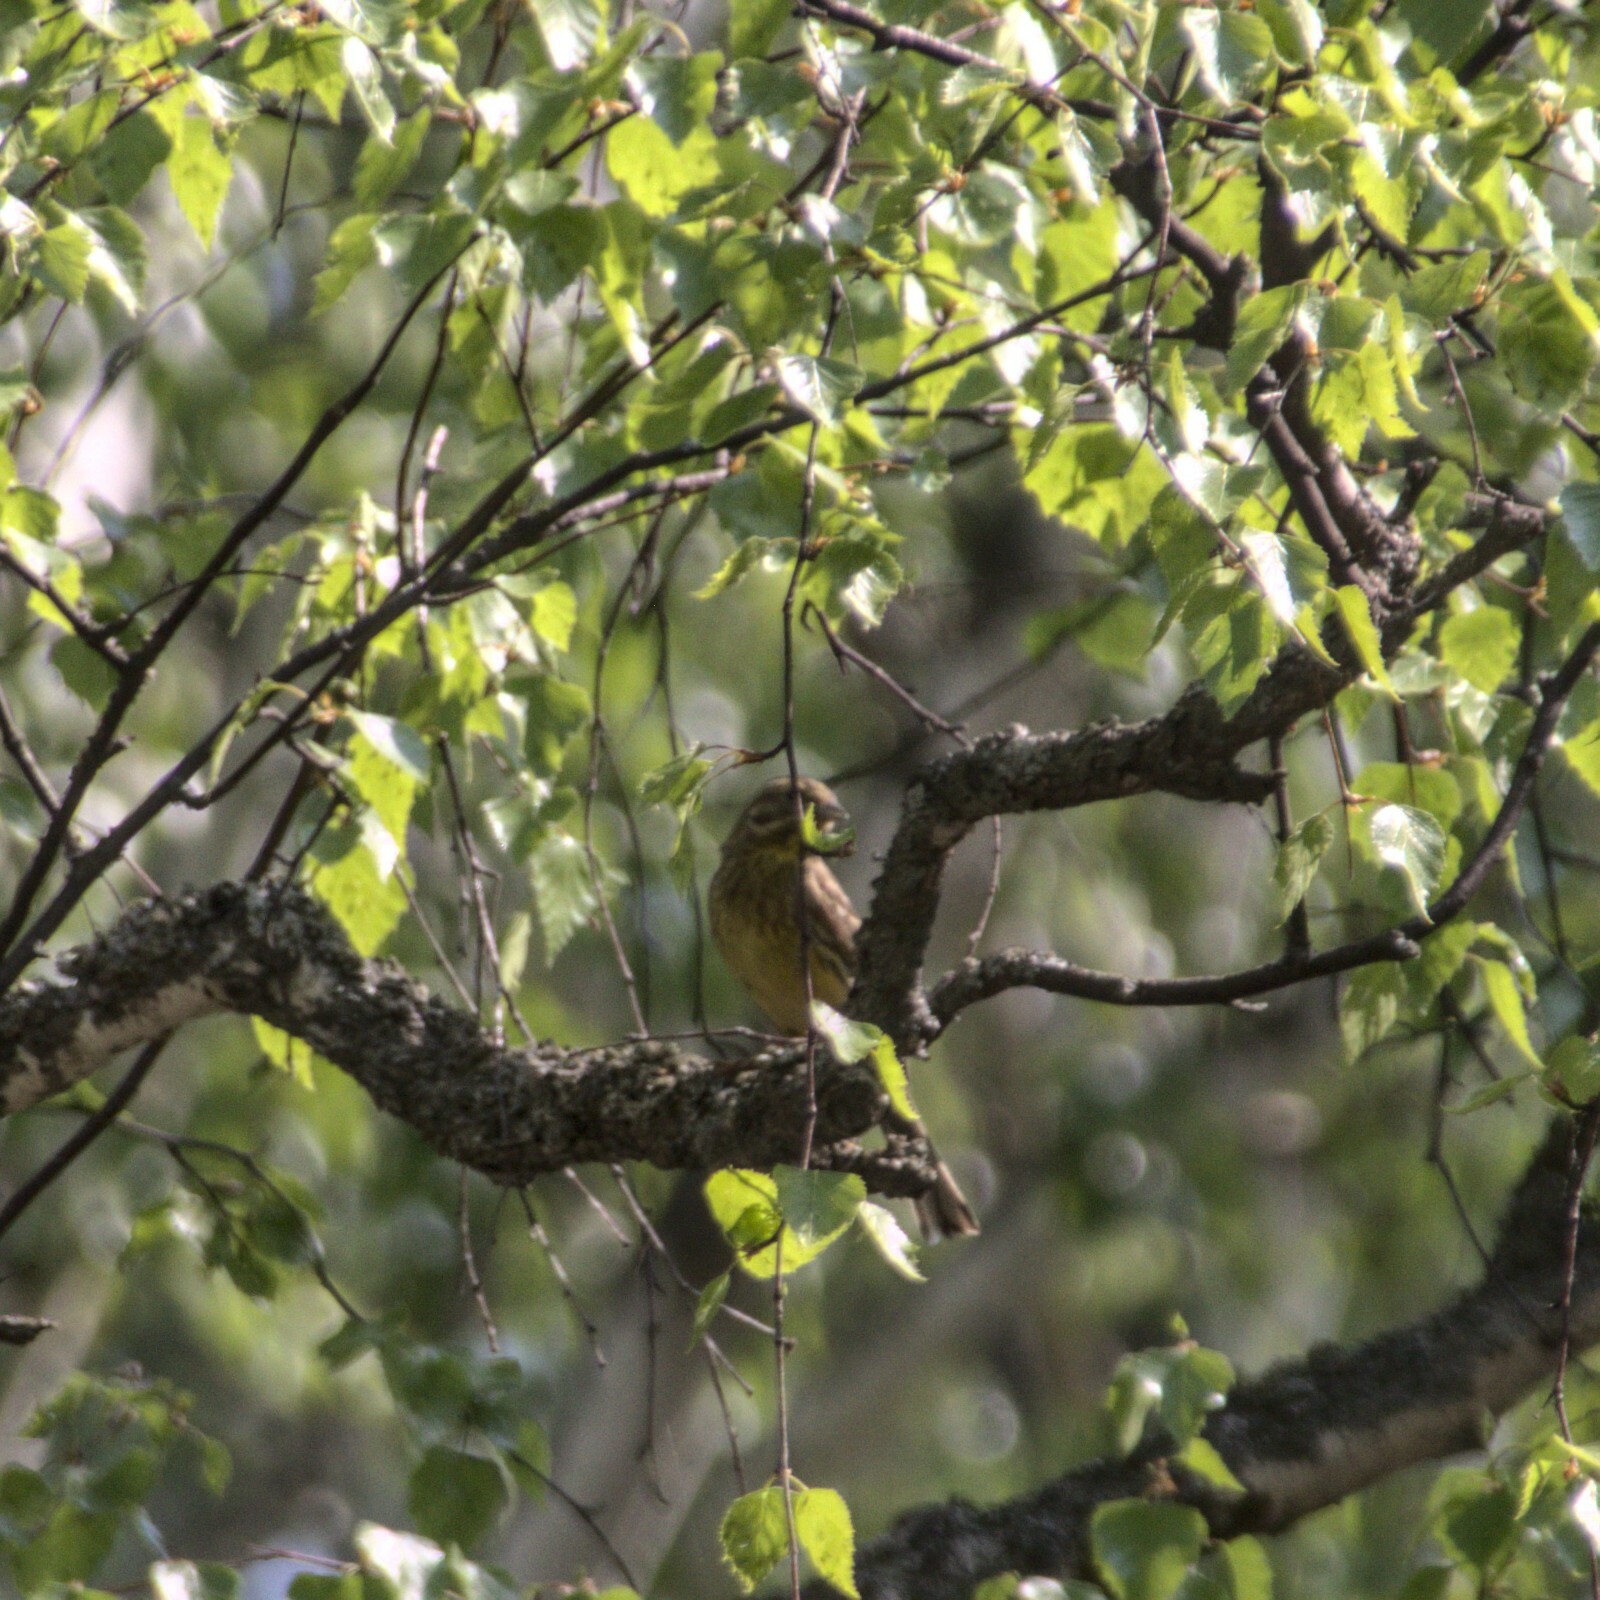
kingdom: Animalia
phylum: Chordata
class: Aves
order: Passeriformes
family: Emberizidae
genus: Emberiza
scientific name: Emberiza
